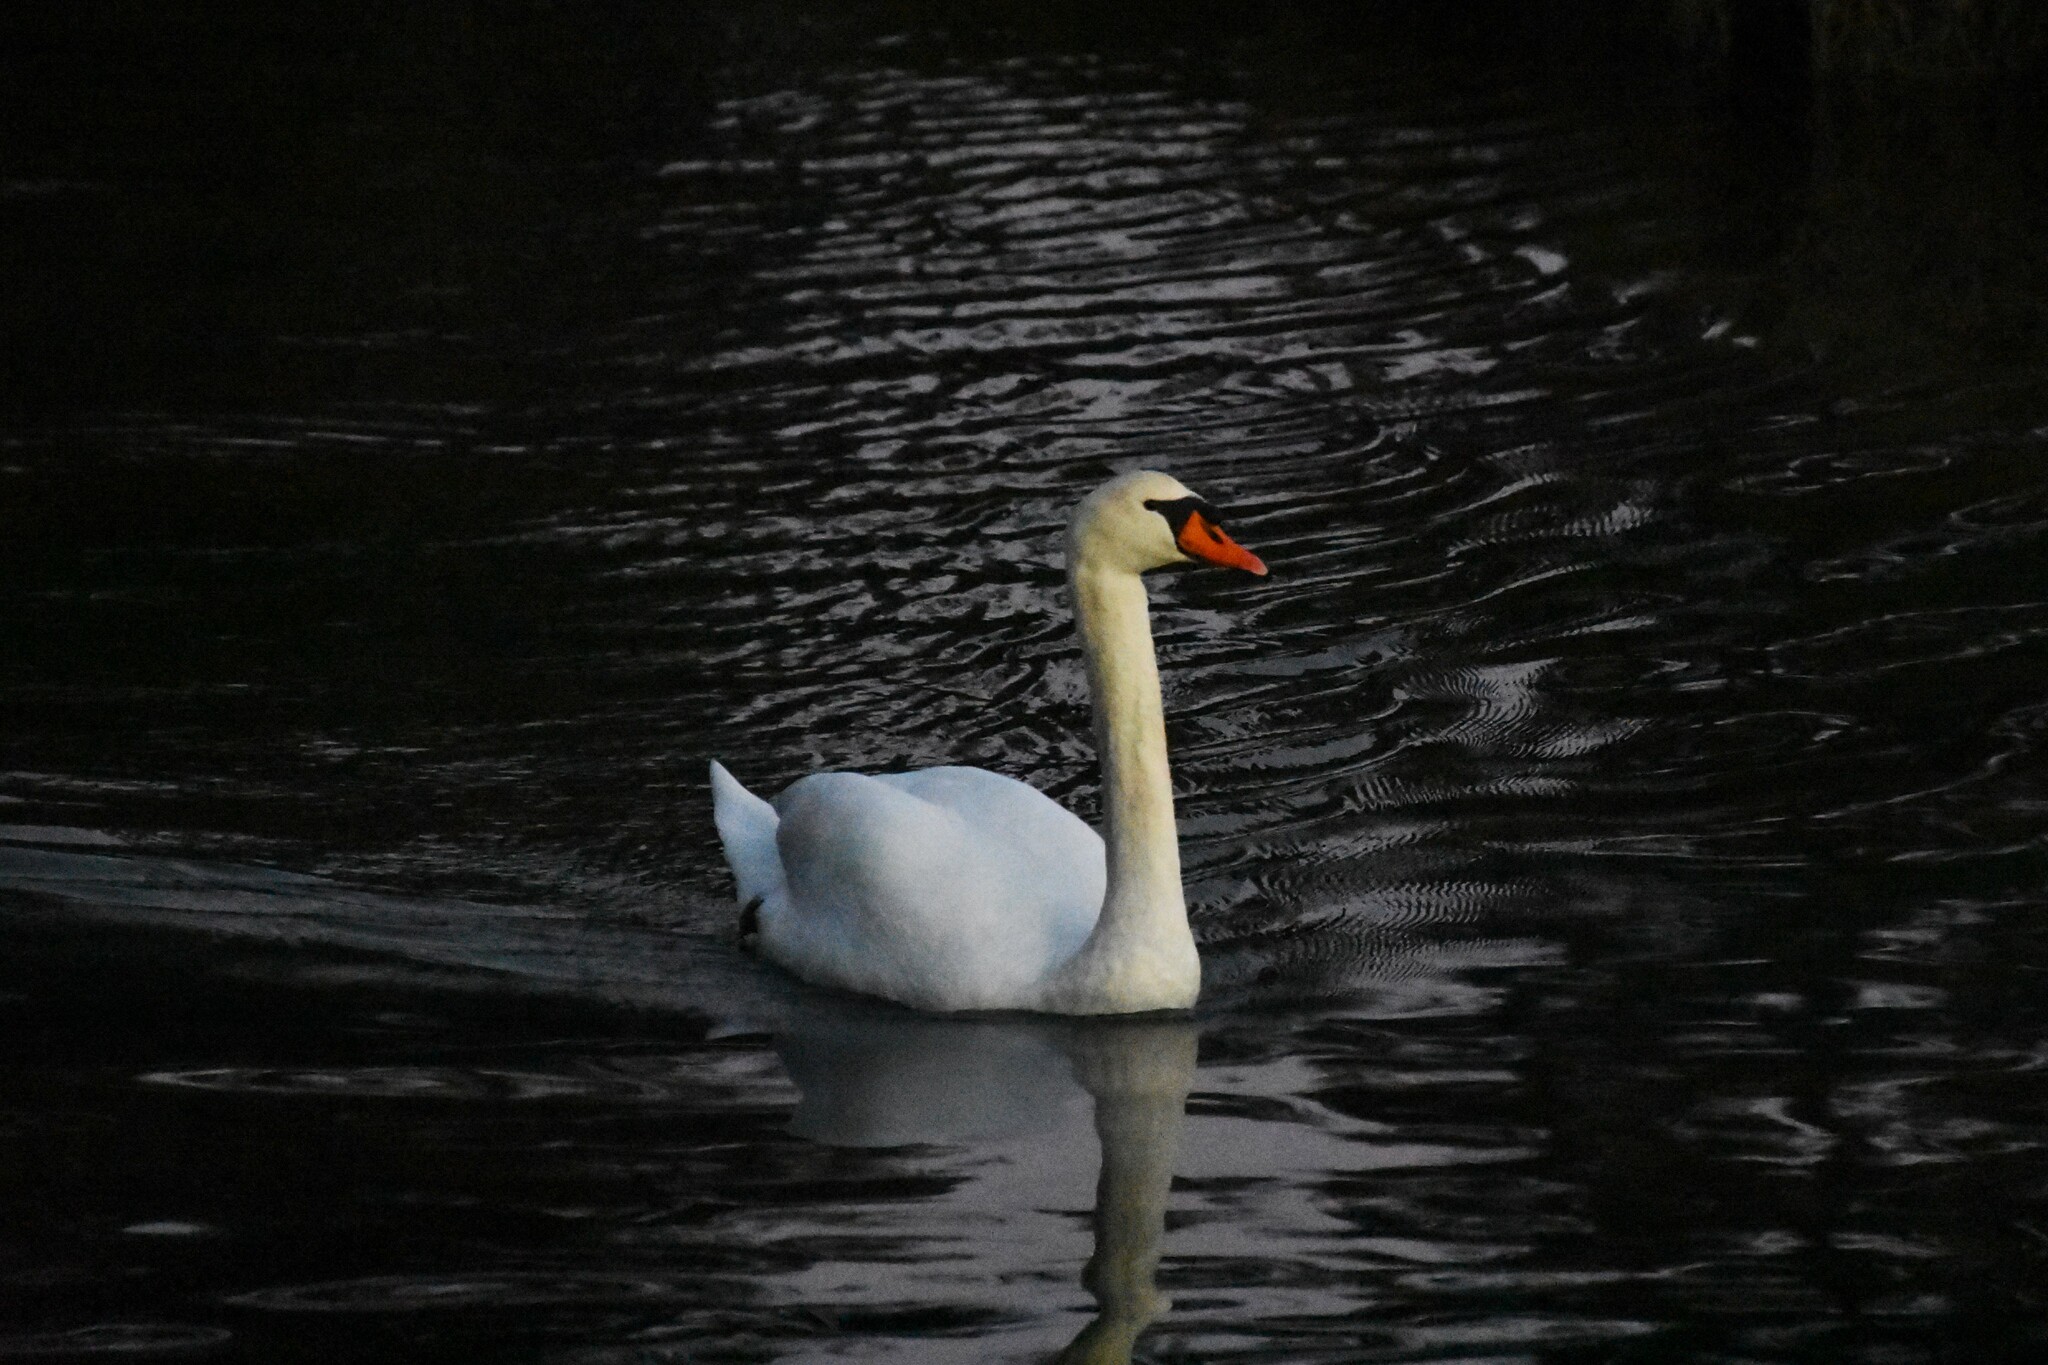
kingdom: Animalia
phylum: Chordata
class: Aves
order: Anseriformes
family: Anatidae
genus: Cygnus
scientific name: Cygnus olor
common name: Mute swan
